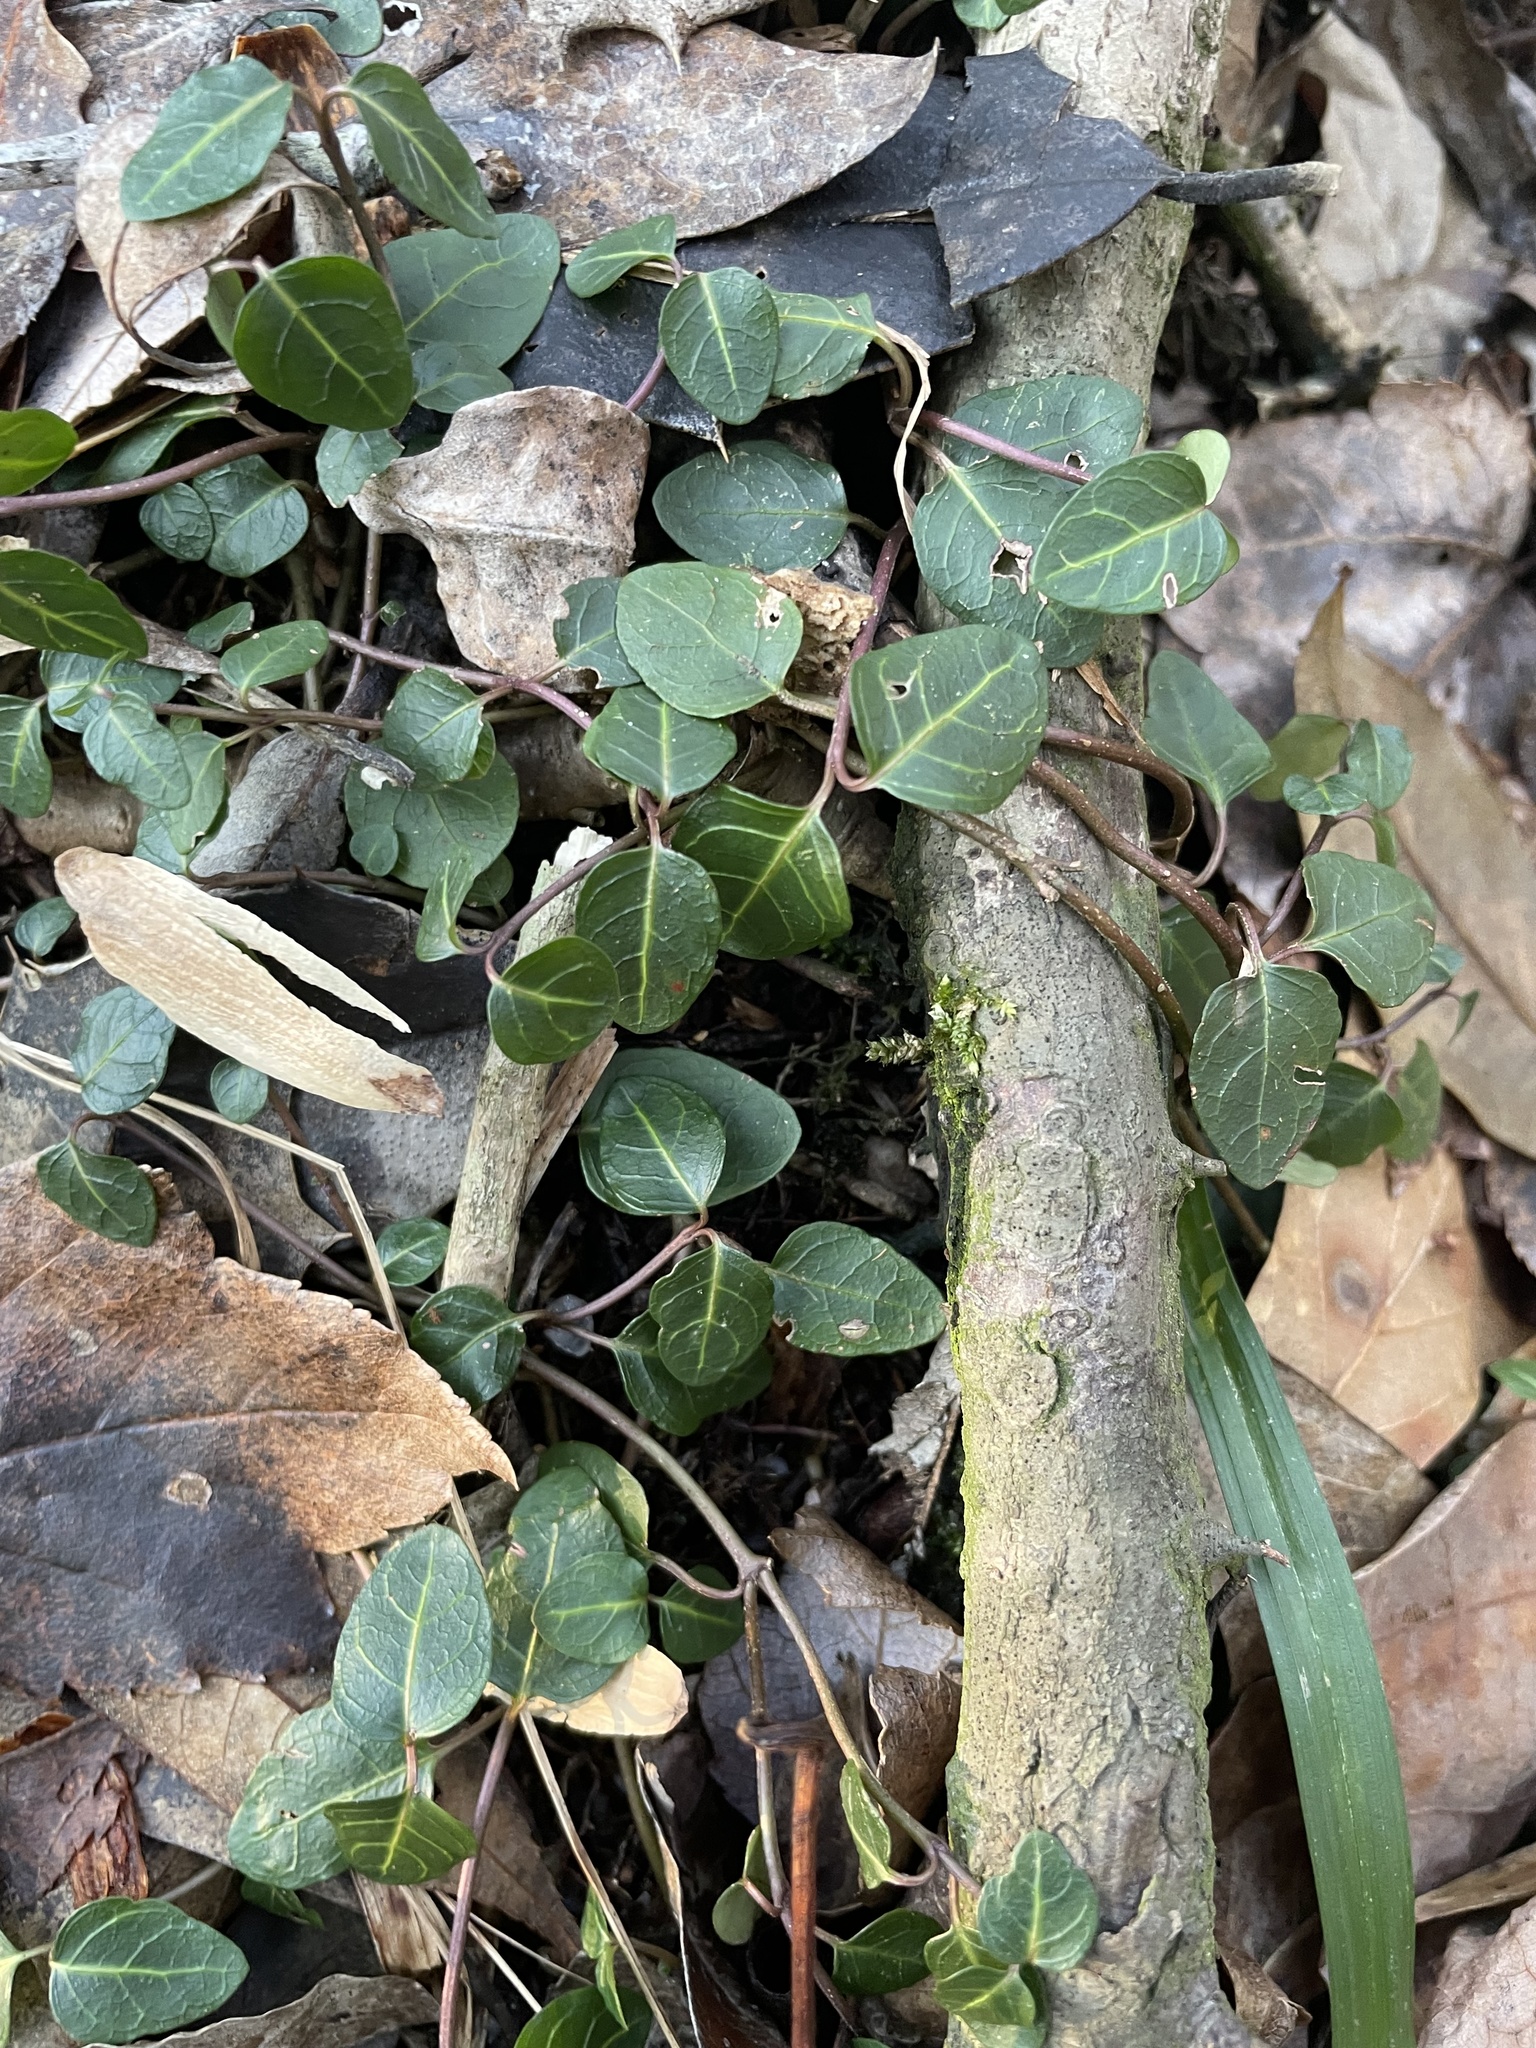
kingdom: Plantae
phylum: Tracheophyta
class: Magnoliopsida
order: Gentianales
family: Rubiaceae
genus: Mitchella
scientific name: Mitchella repens
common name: Partridge-berry
